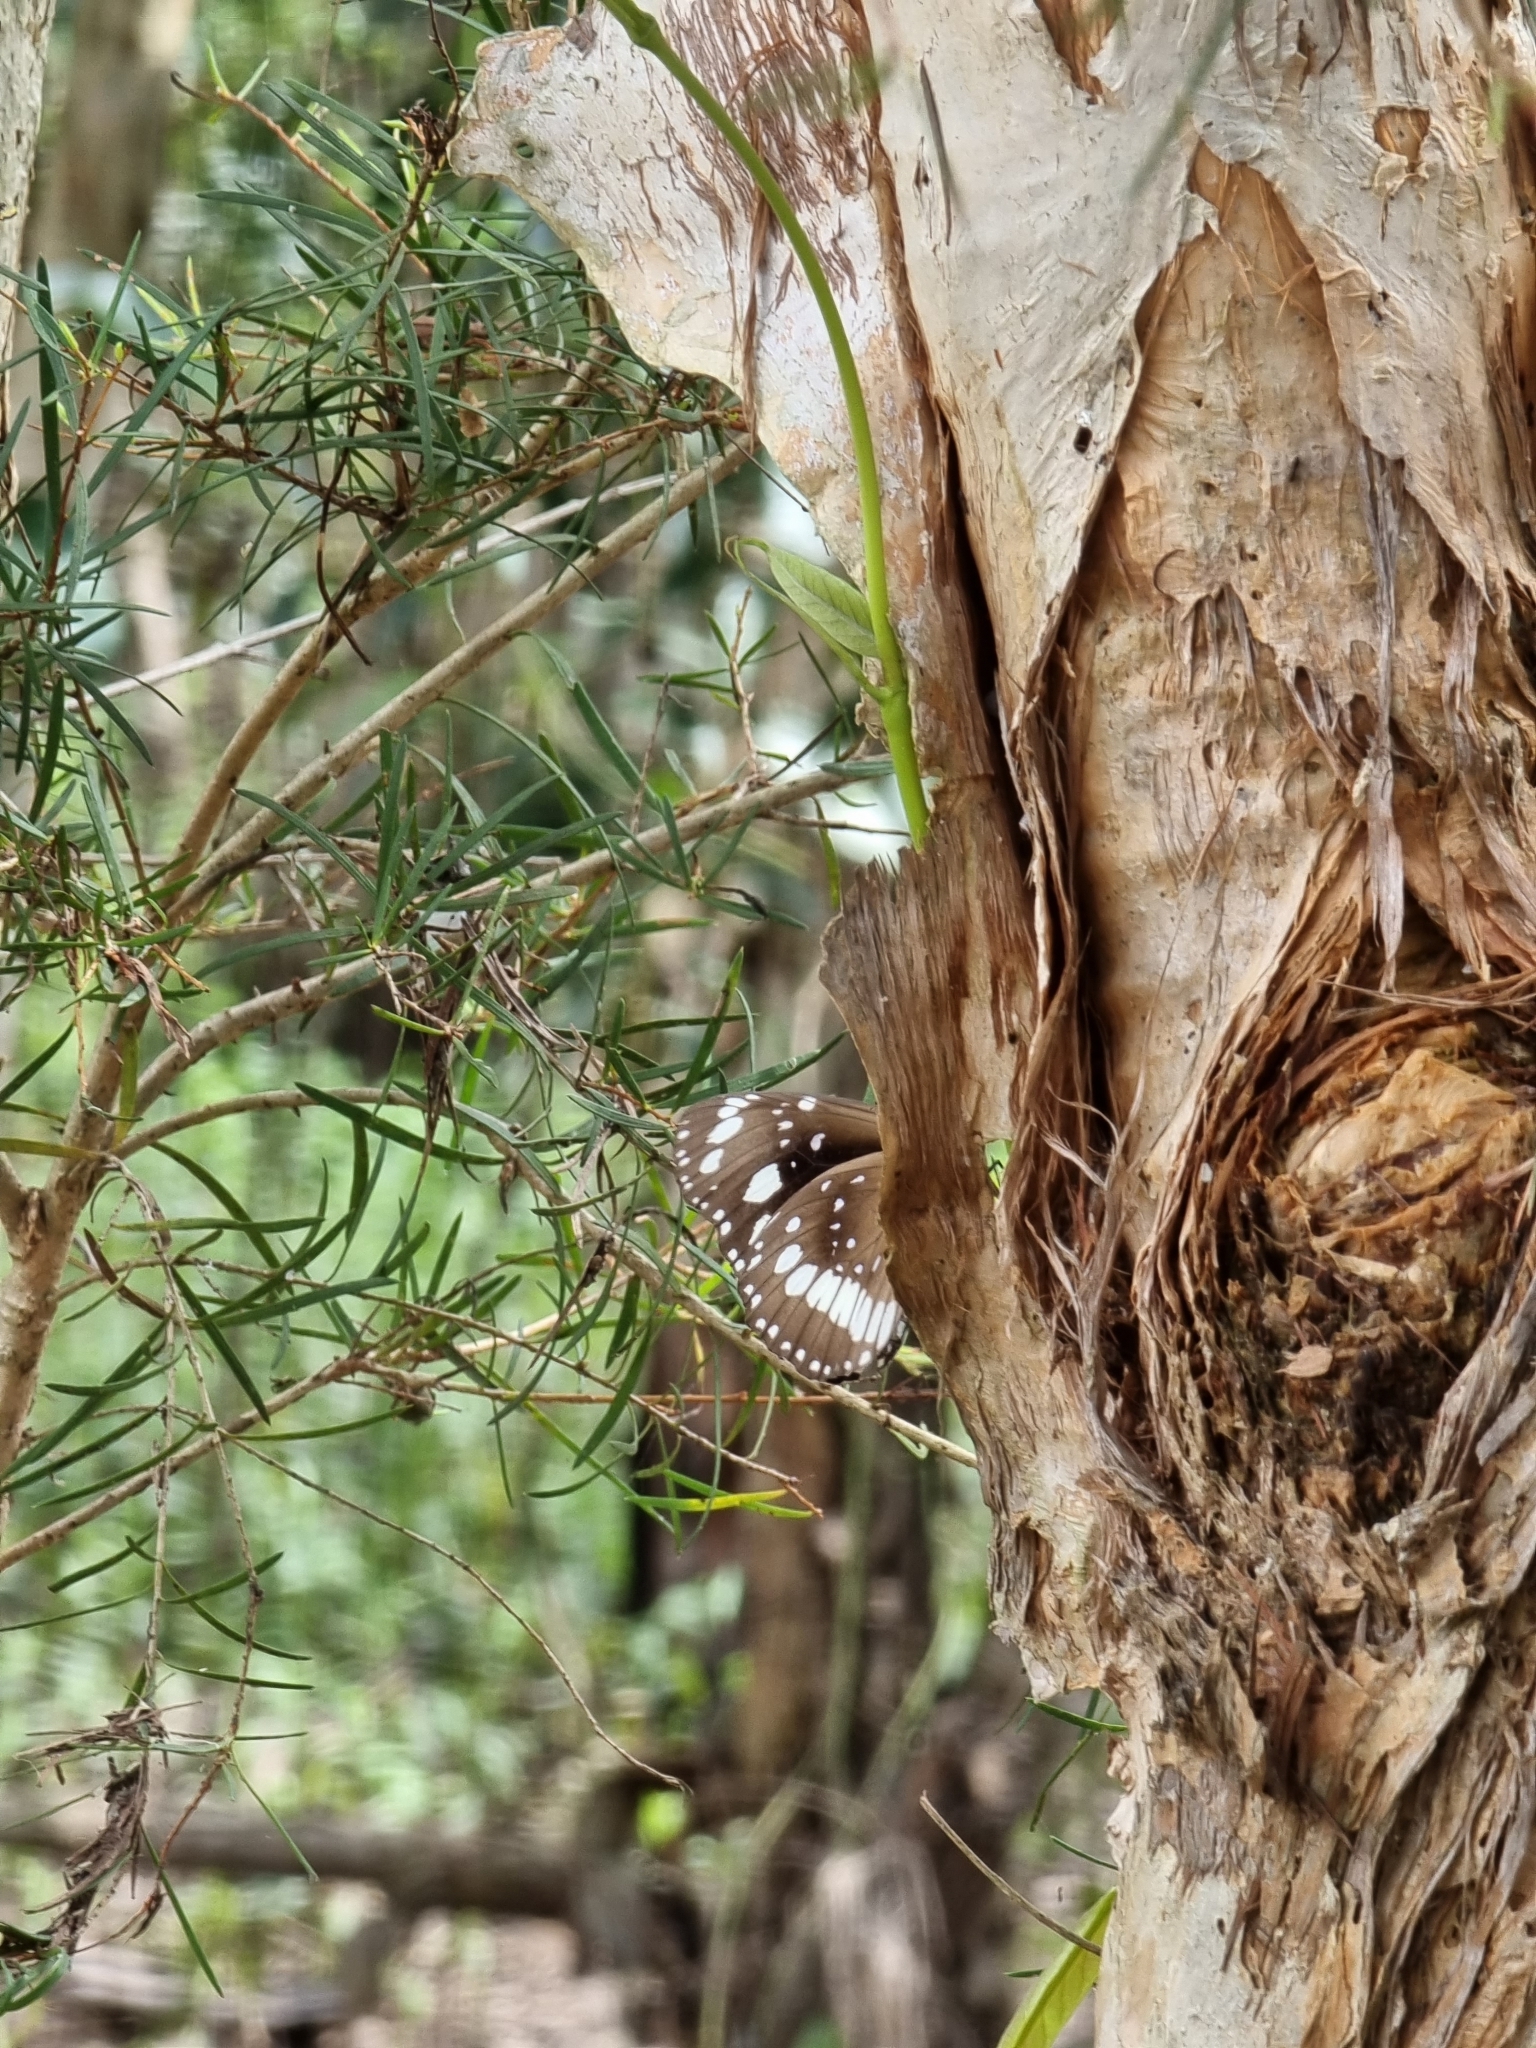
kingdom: Animalia
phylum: Arthropoda
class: Insecta
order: Lepidoptera
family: Nymphalidae
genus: Euploea
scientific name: Euploea core
